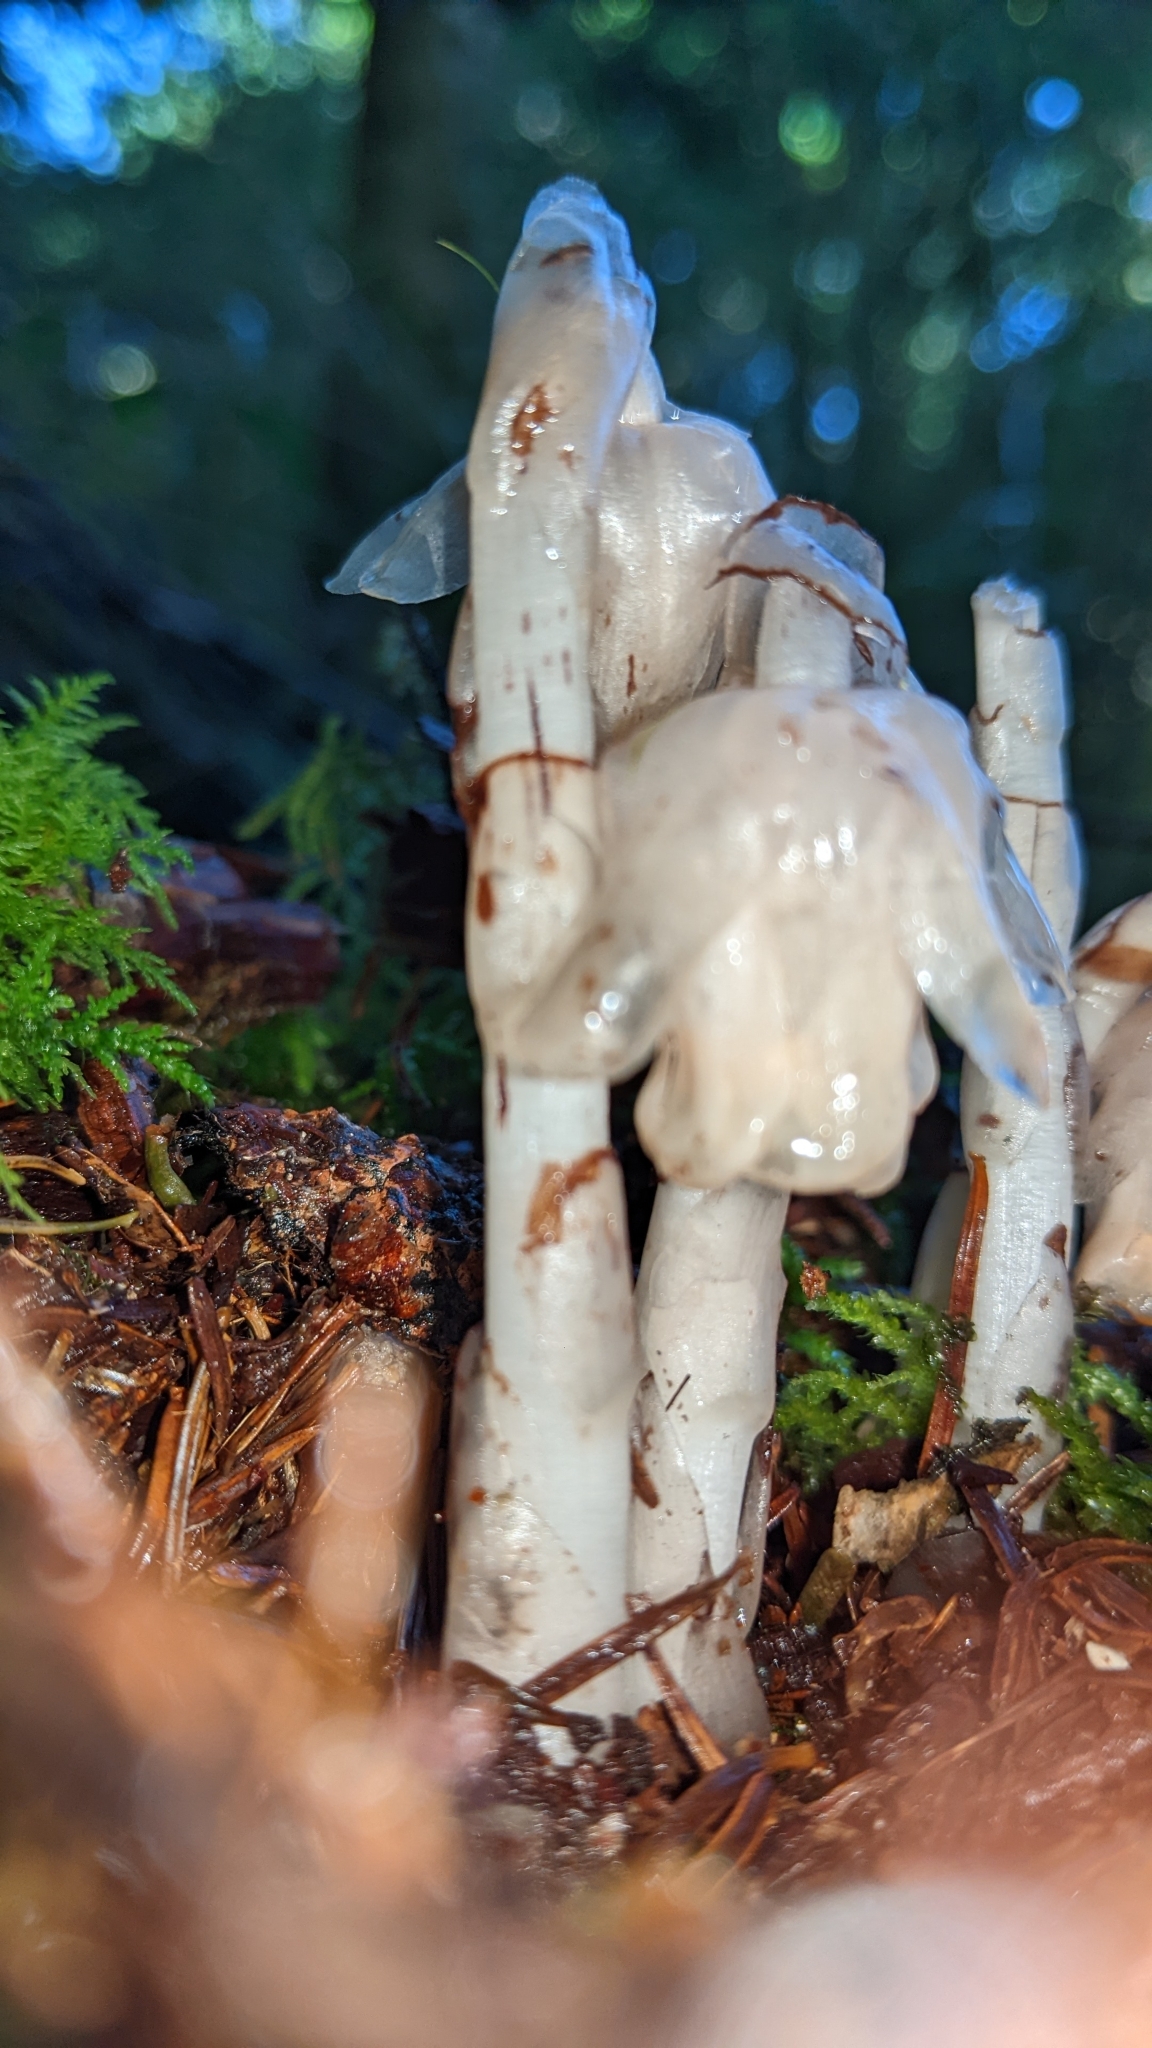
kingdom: Plantae
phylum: Tracheophyta
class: Magnoliopsida
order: Ericales
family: Ericaceae
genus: Monotropastrum
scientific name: Monotropastrum humile
